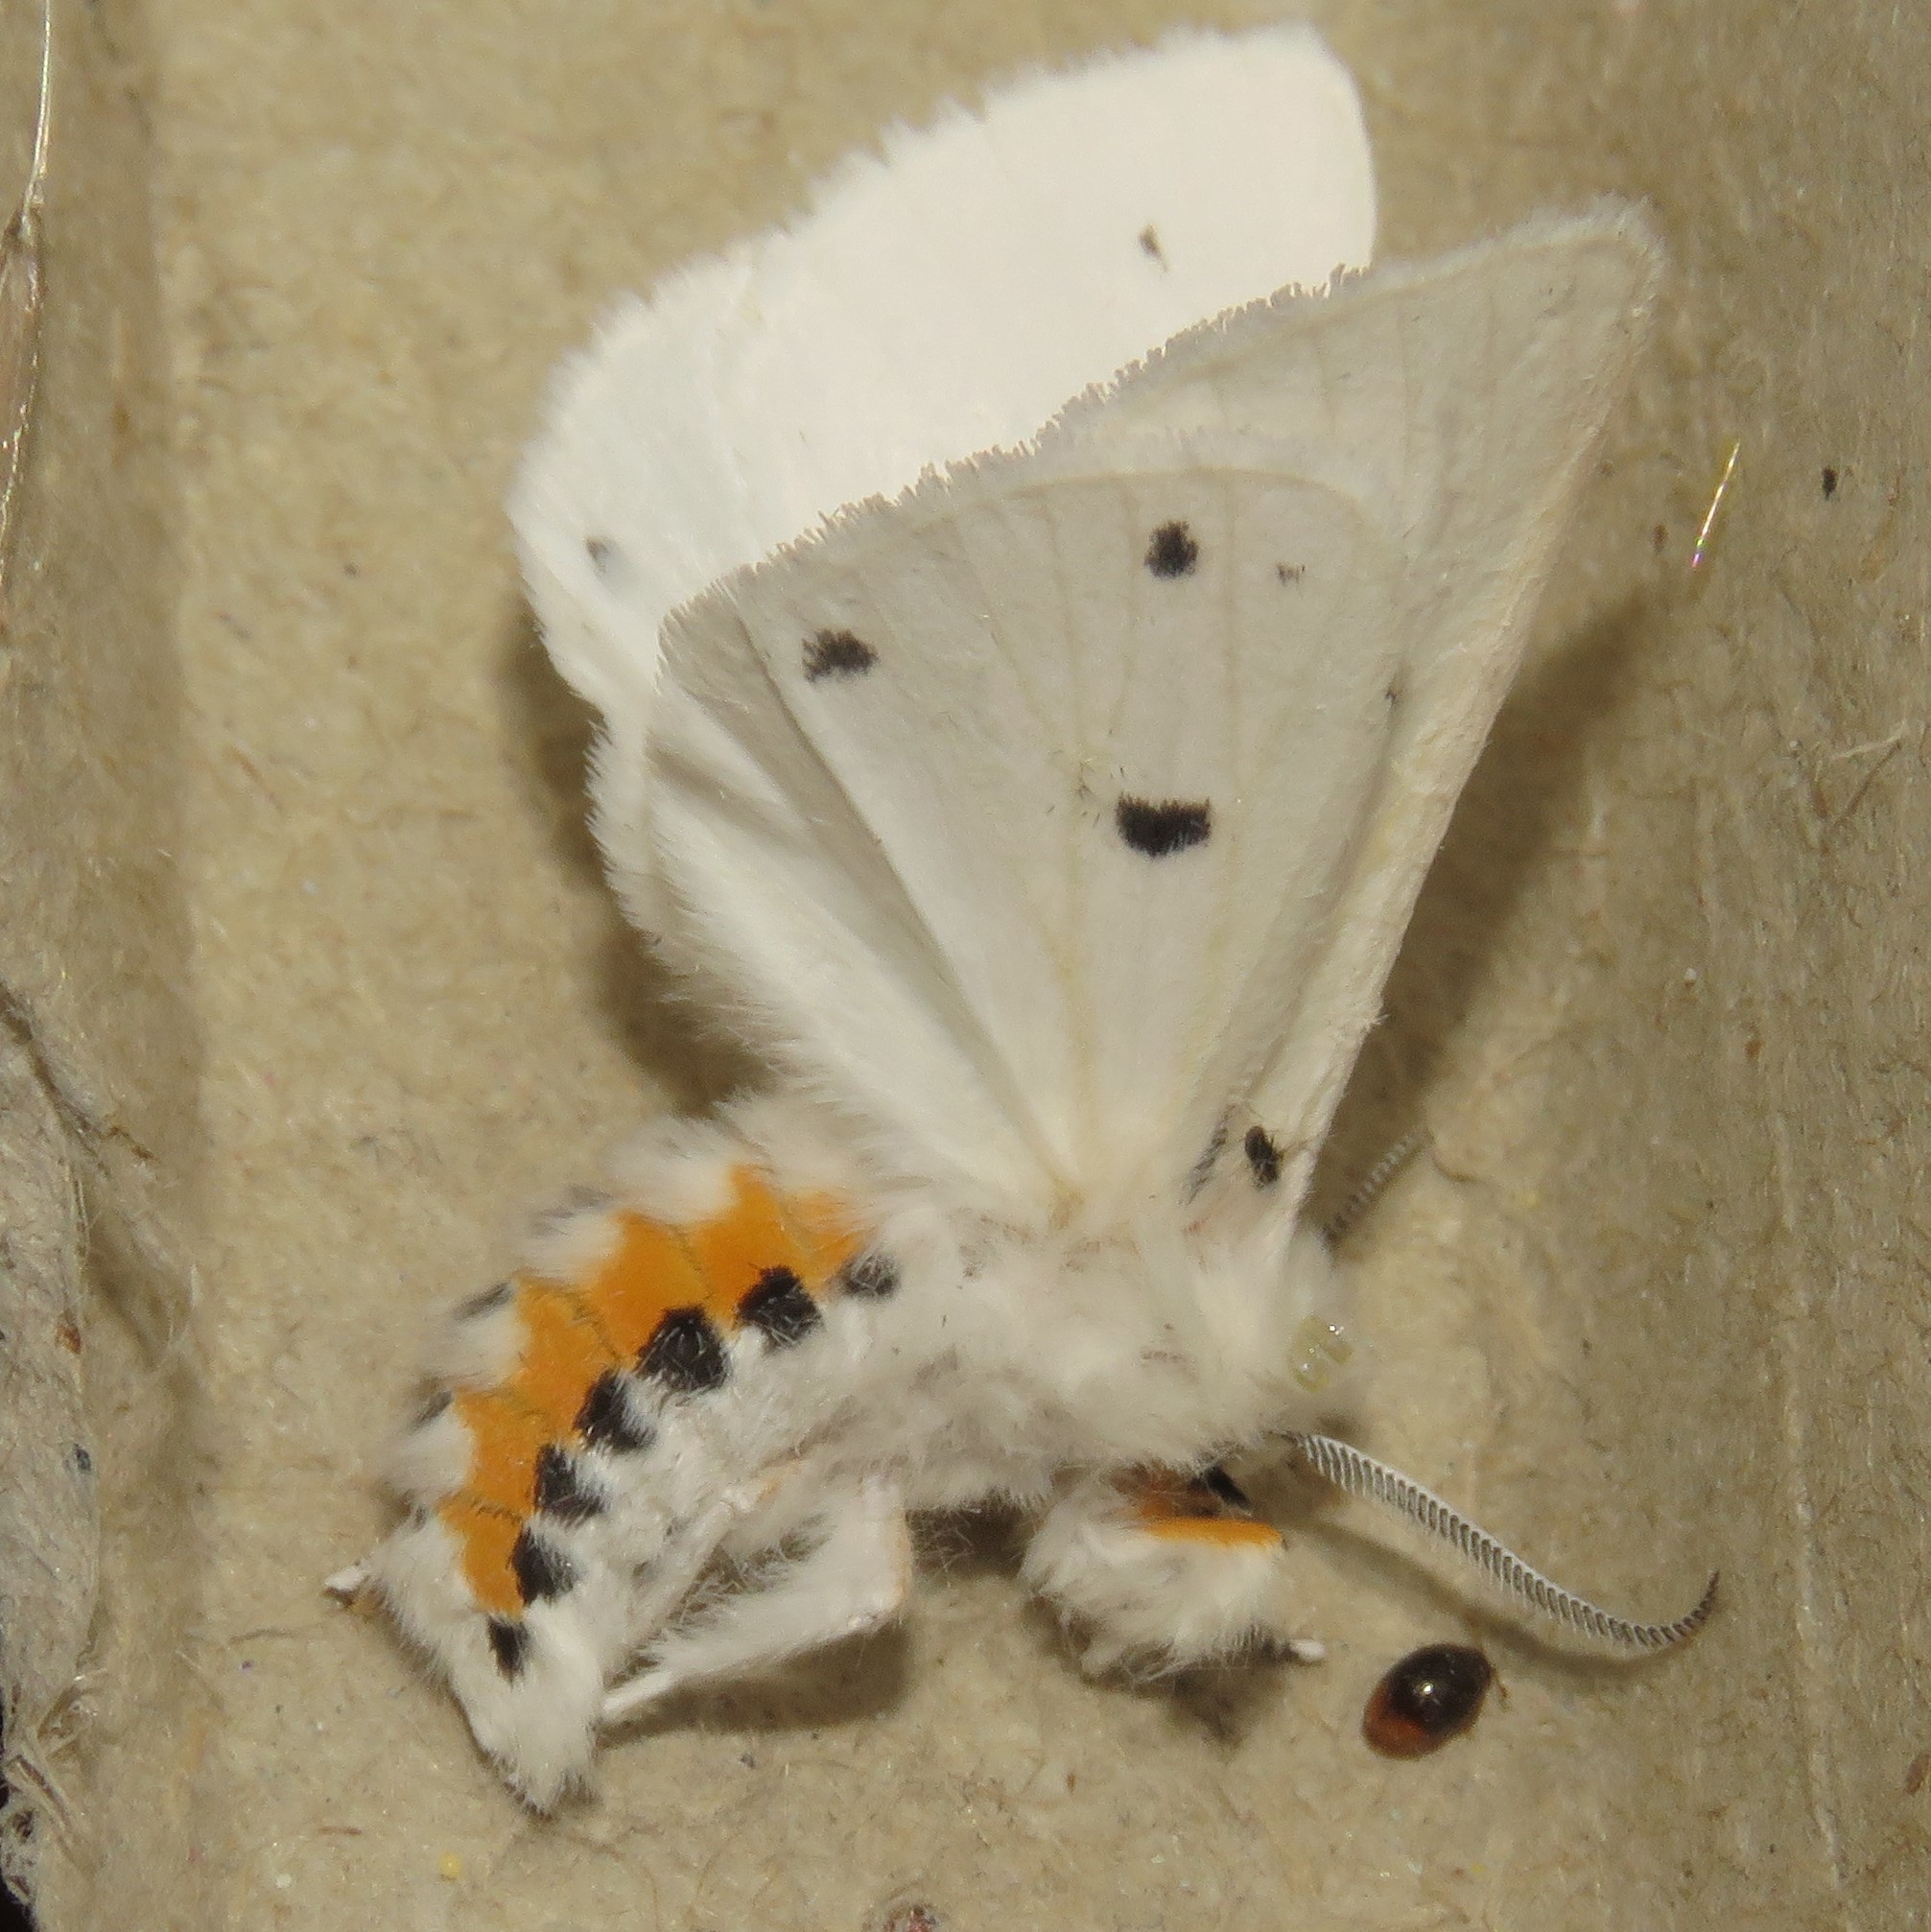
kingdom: Animalia
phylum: Arthropoda
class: Insecta
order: Lepidoptera
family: Erebidae
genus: Spilosoma
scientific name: Spilosoma virginica
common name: Virginia tiger moth
